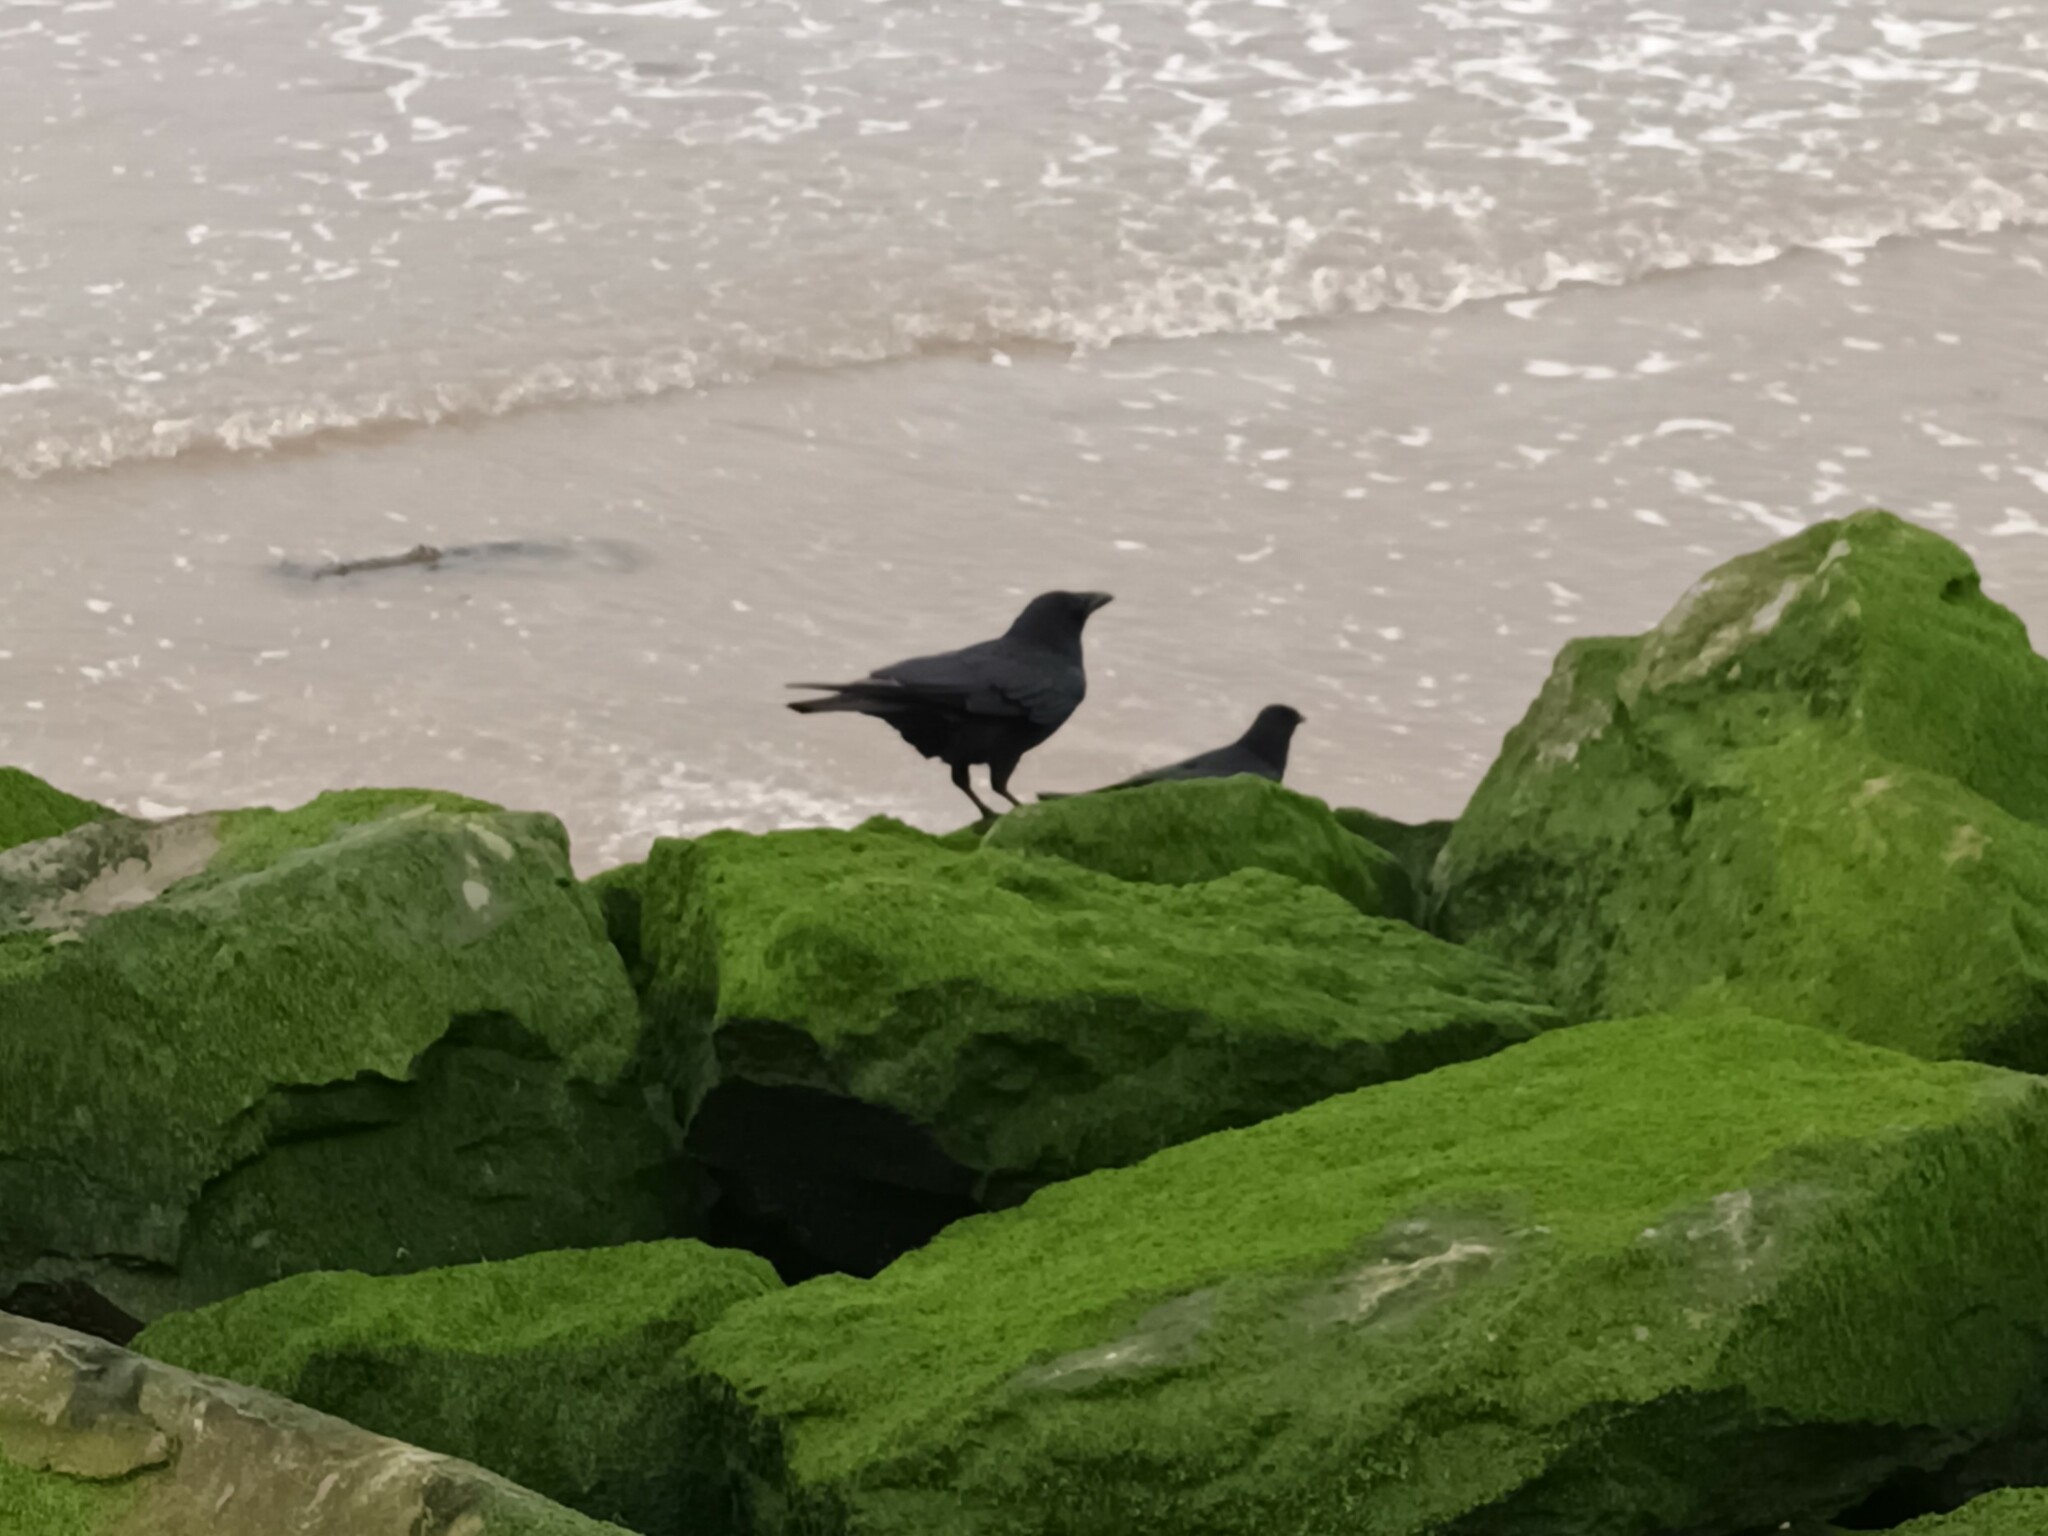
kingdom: Animalia
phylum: Chordata
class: Aves
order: Passeriformes
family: Corvidae
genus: Corvus
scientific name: Corvus corone
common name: Carrion crow
